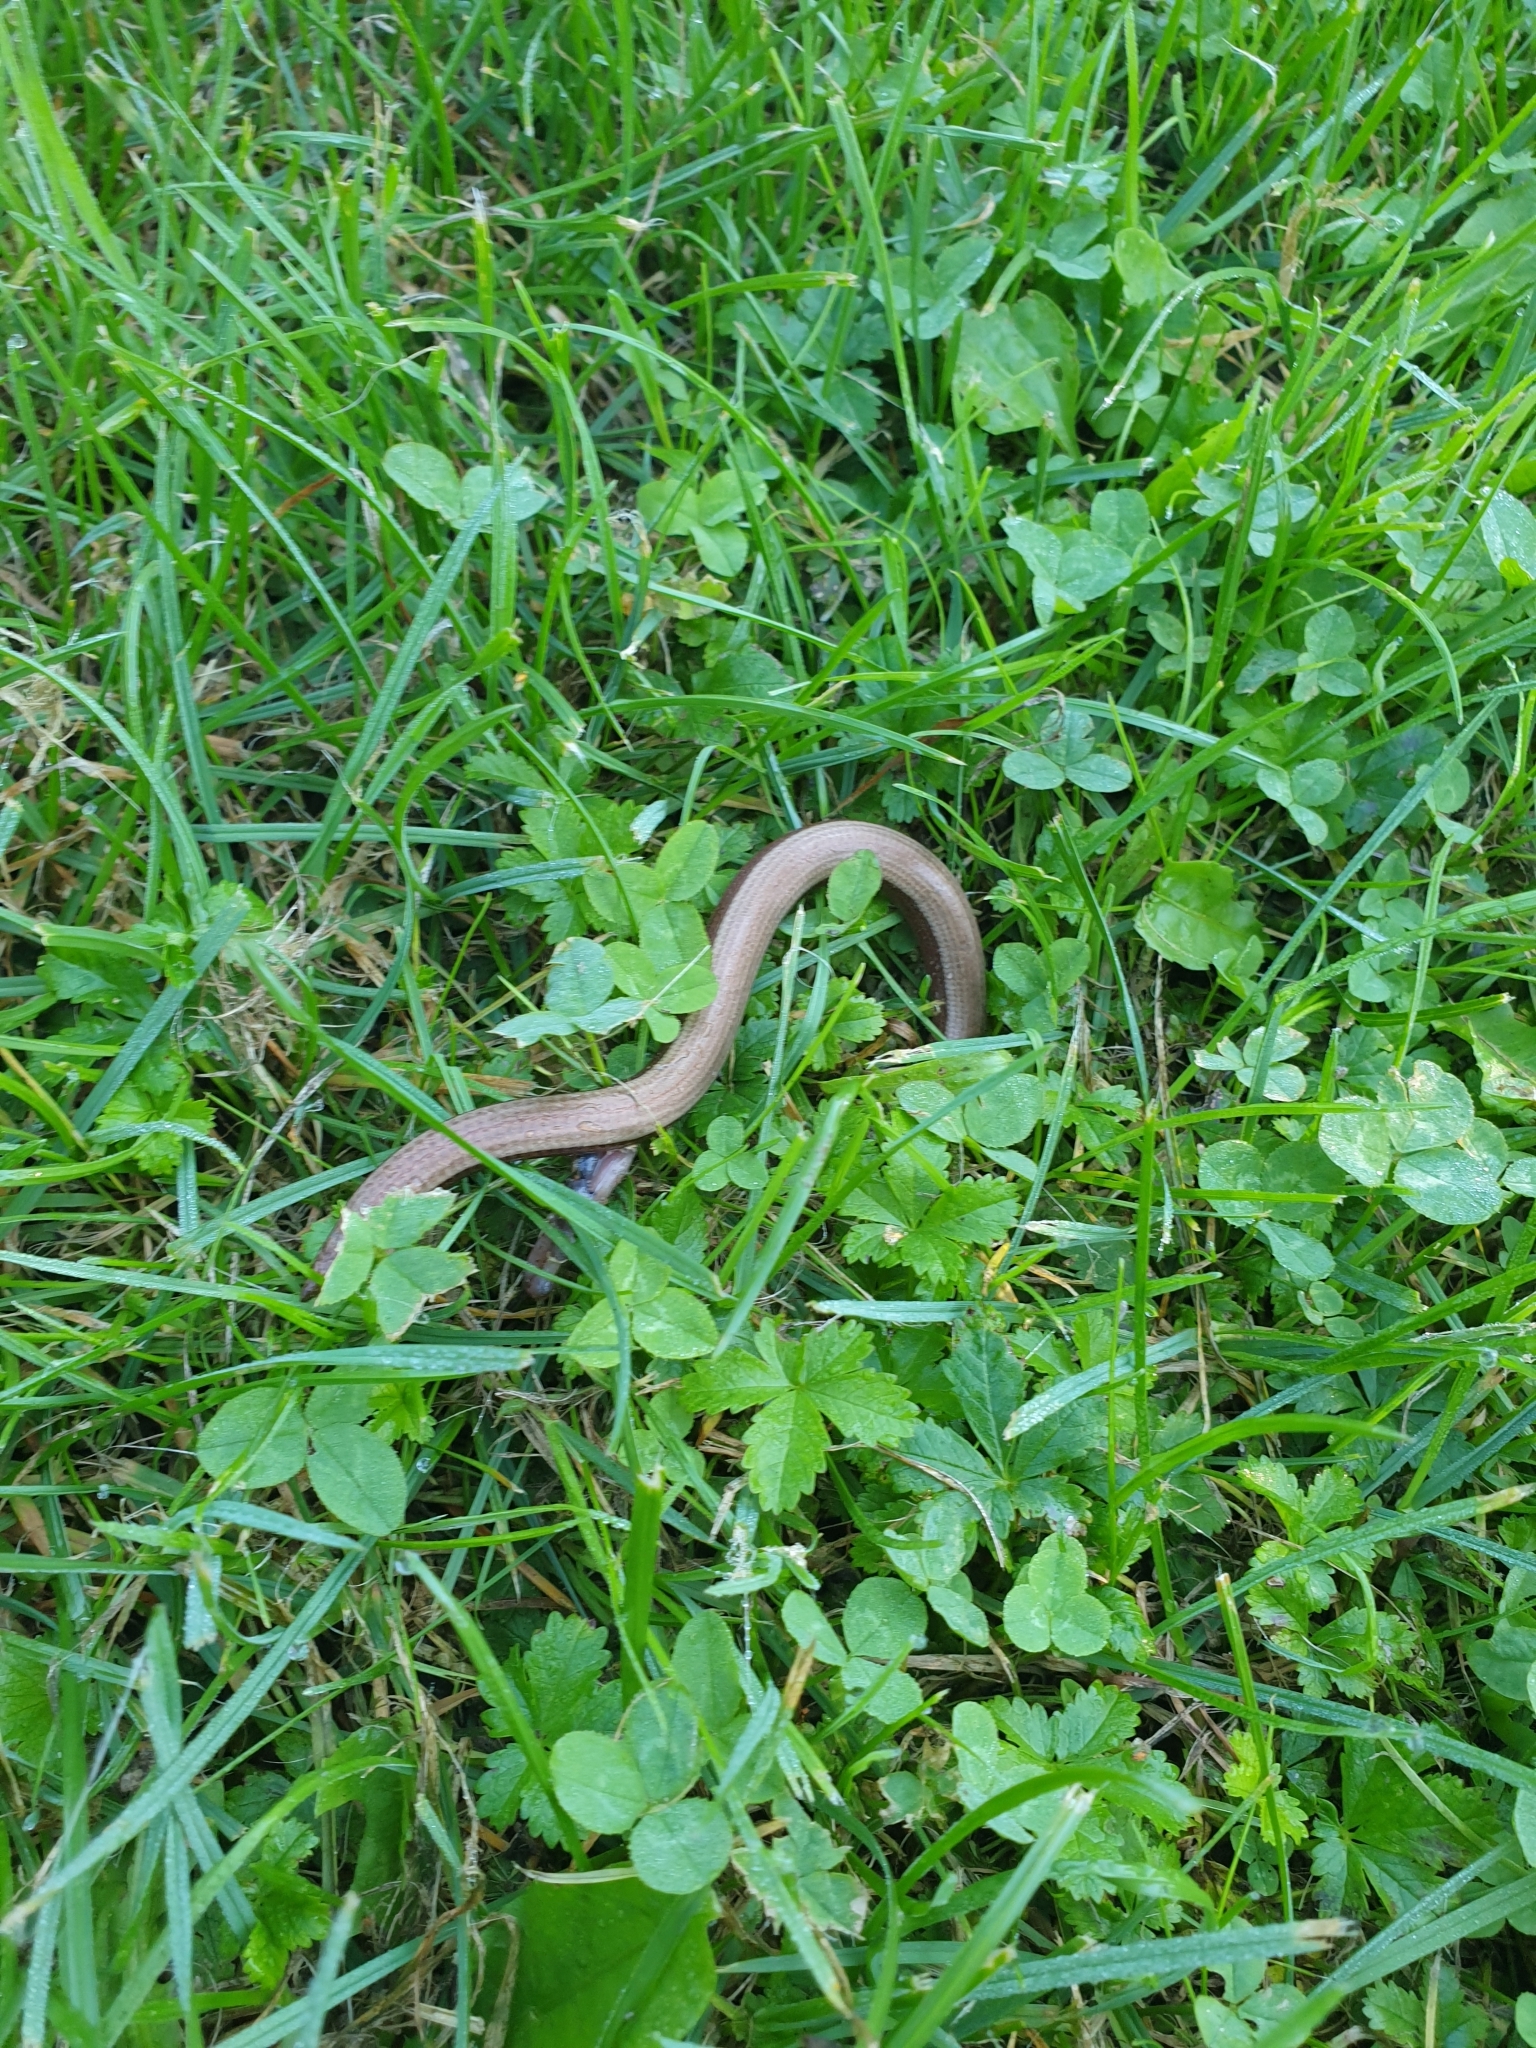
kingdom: Animalia
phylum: Chordata
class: Squamata
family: Anguidae
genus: Anguis
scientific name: Anguis fragilis
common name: Slow worm
